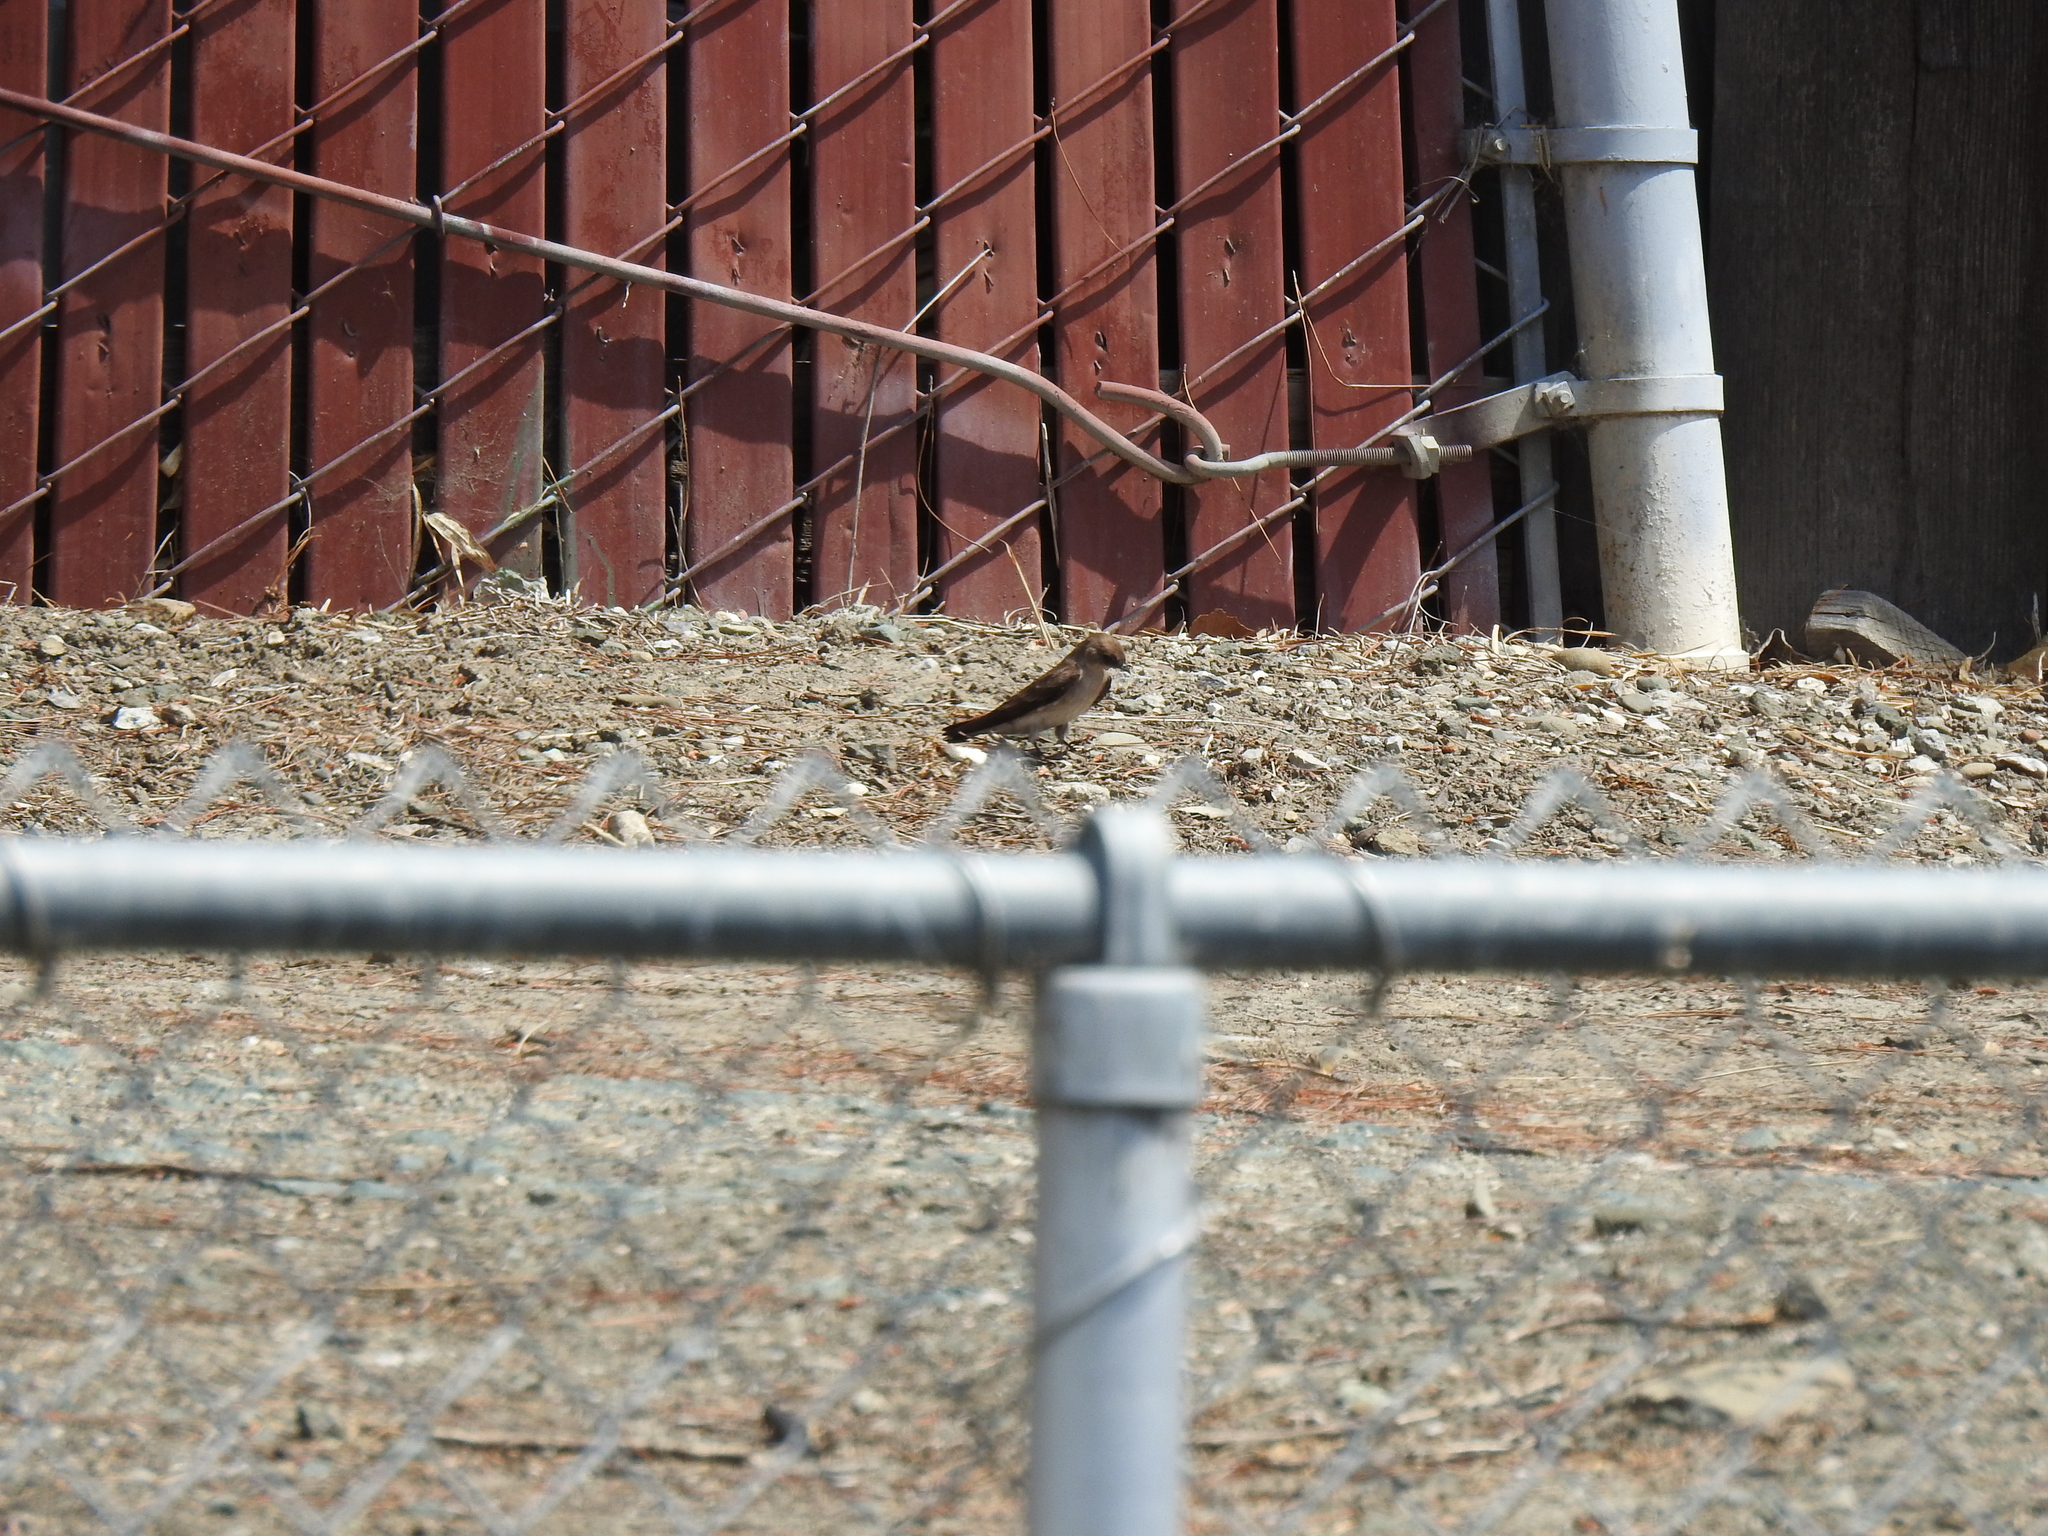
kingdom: Animalia
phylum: Chordata
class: Aves
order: Passeriformes
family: Hirundinidae
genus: Stelgidopteryx
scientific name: Stelgidopteryx serripennis
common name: Northern rough-winged swallow
